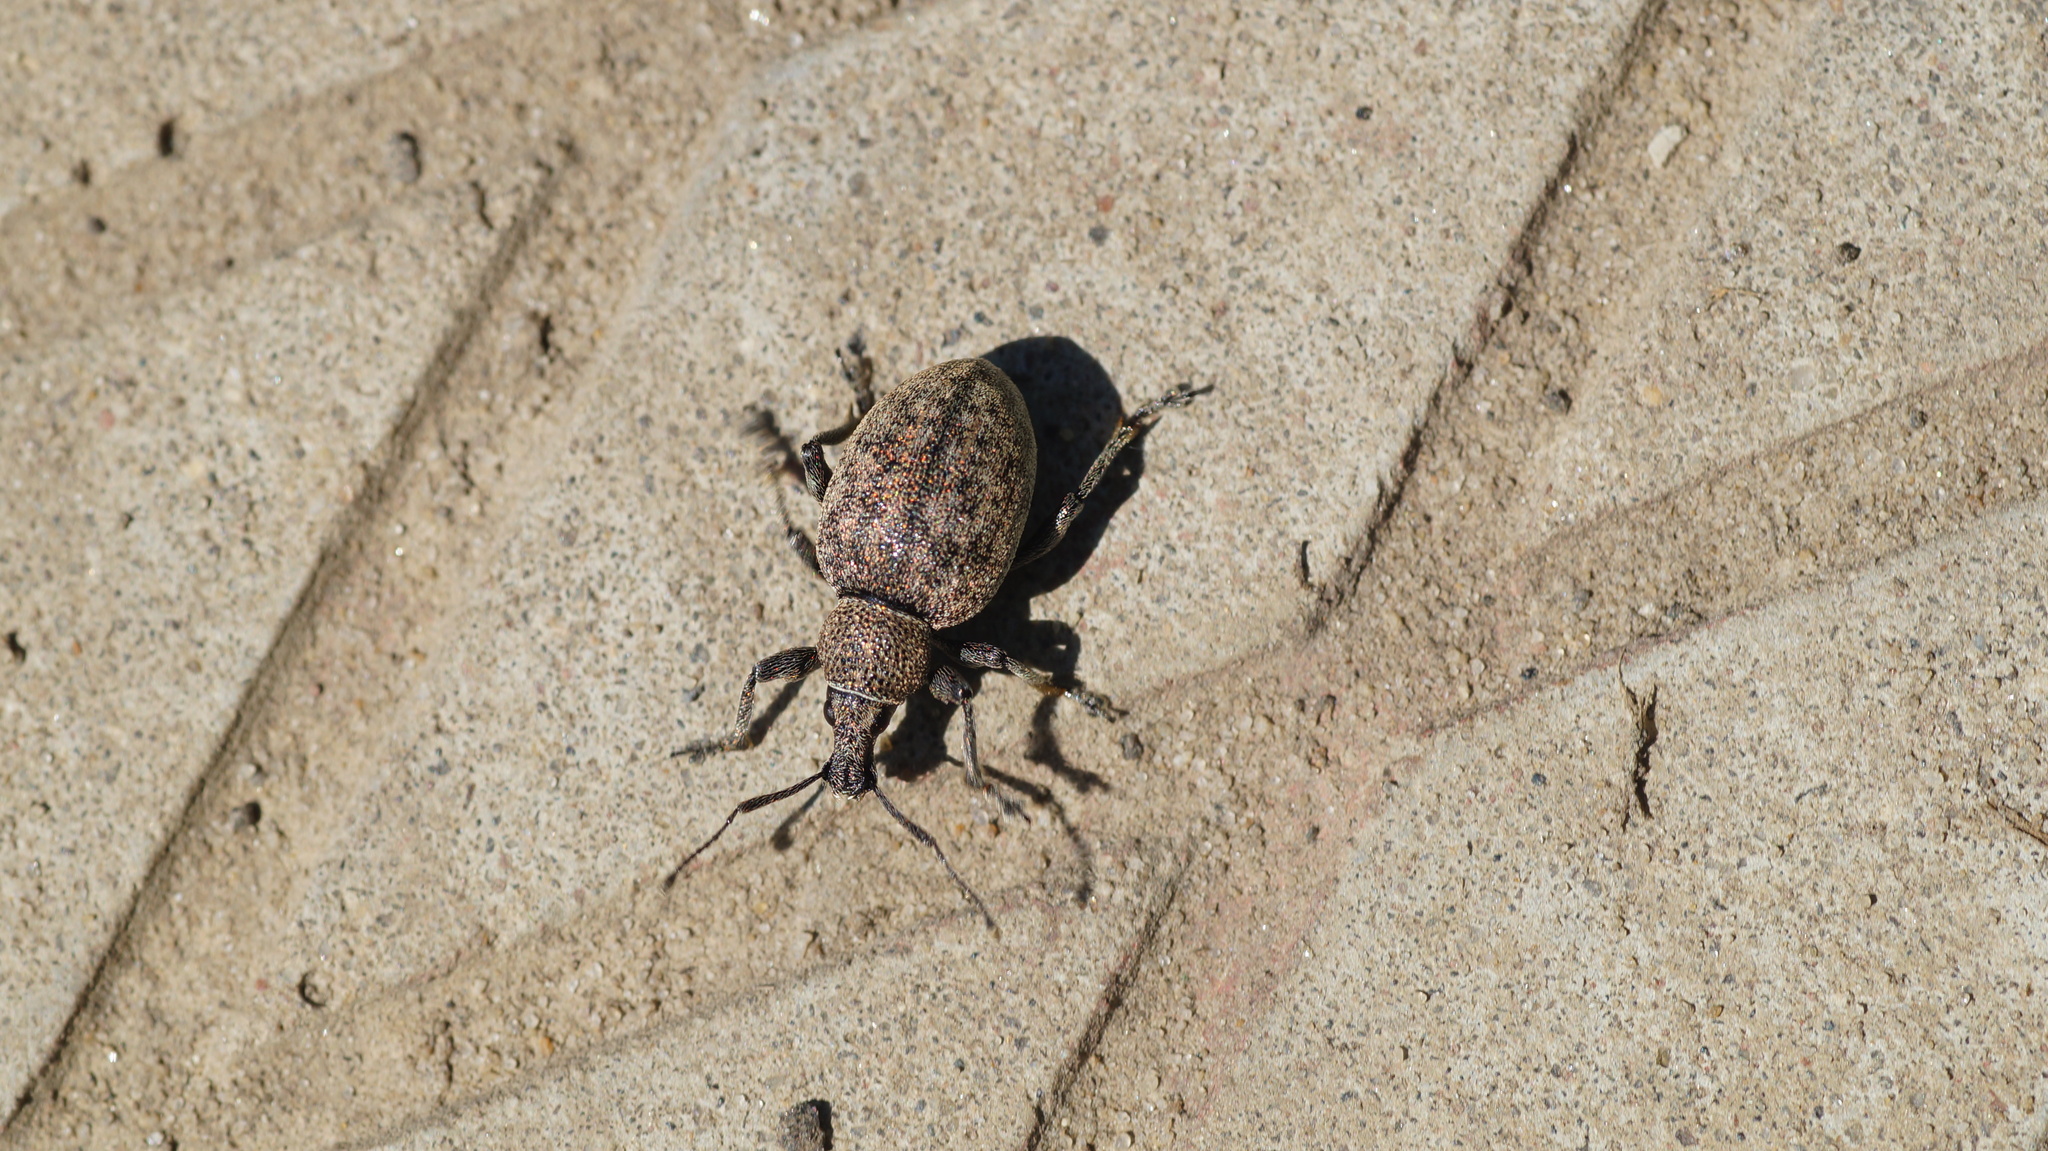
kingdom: Animalia
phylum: Arthropoda
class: Insecta
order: Coleoptera
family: Curculionidae
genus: Otiorhynchus
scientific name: Otiorhynchus ligustici
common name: Weevil
